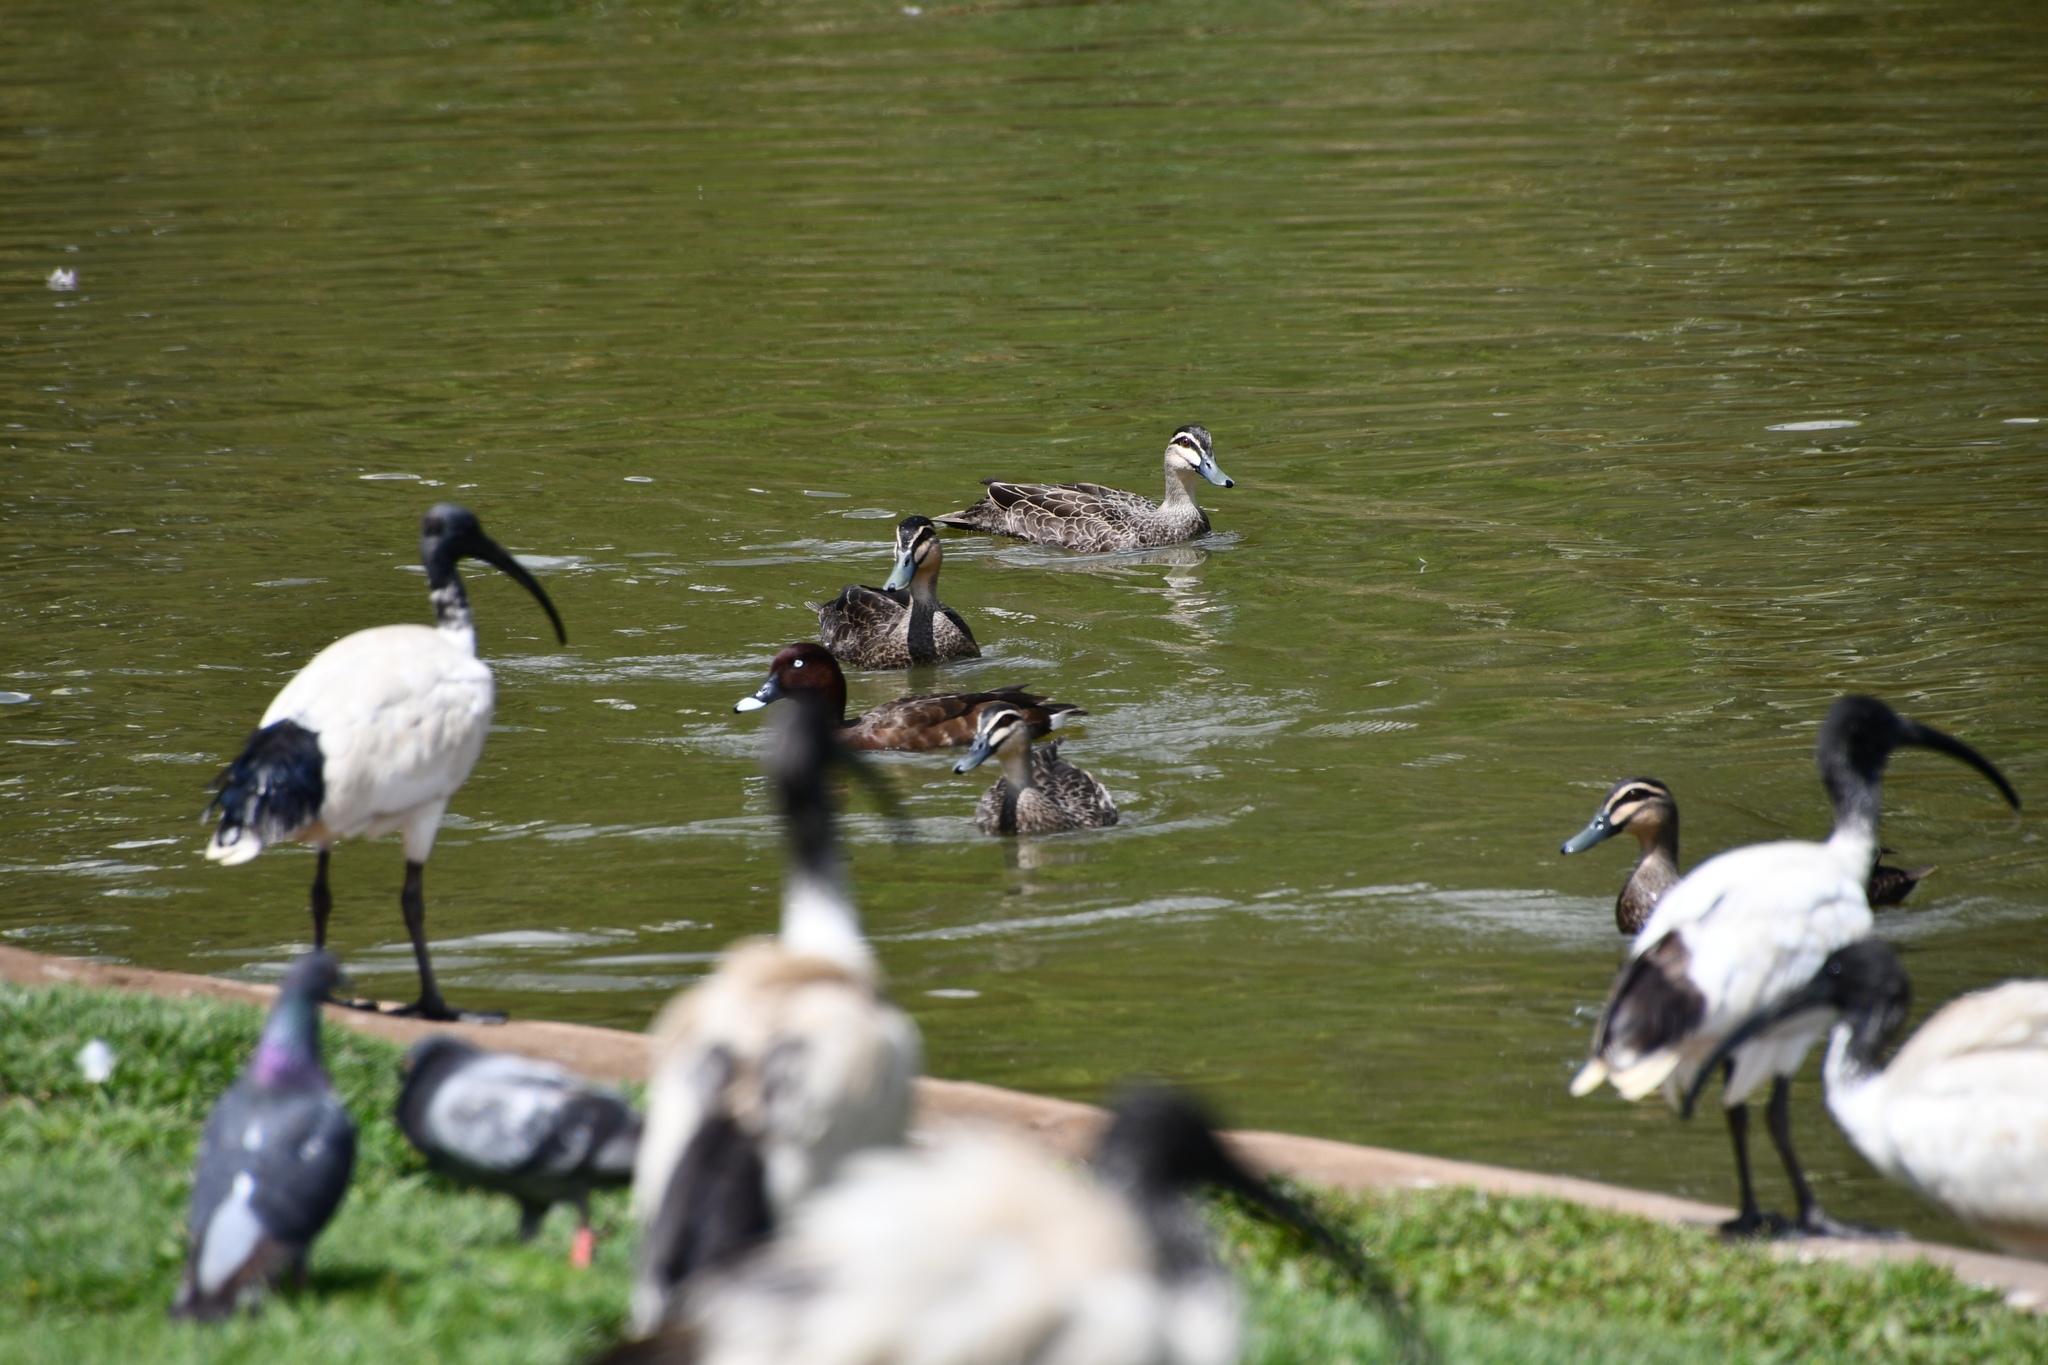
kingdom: Animalia
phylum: Chordata
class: Aves
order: Anseriformes
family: Anatidae
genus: Anas
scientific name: Anas superciliosa
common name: Pacific black duck
